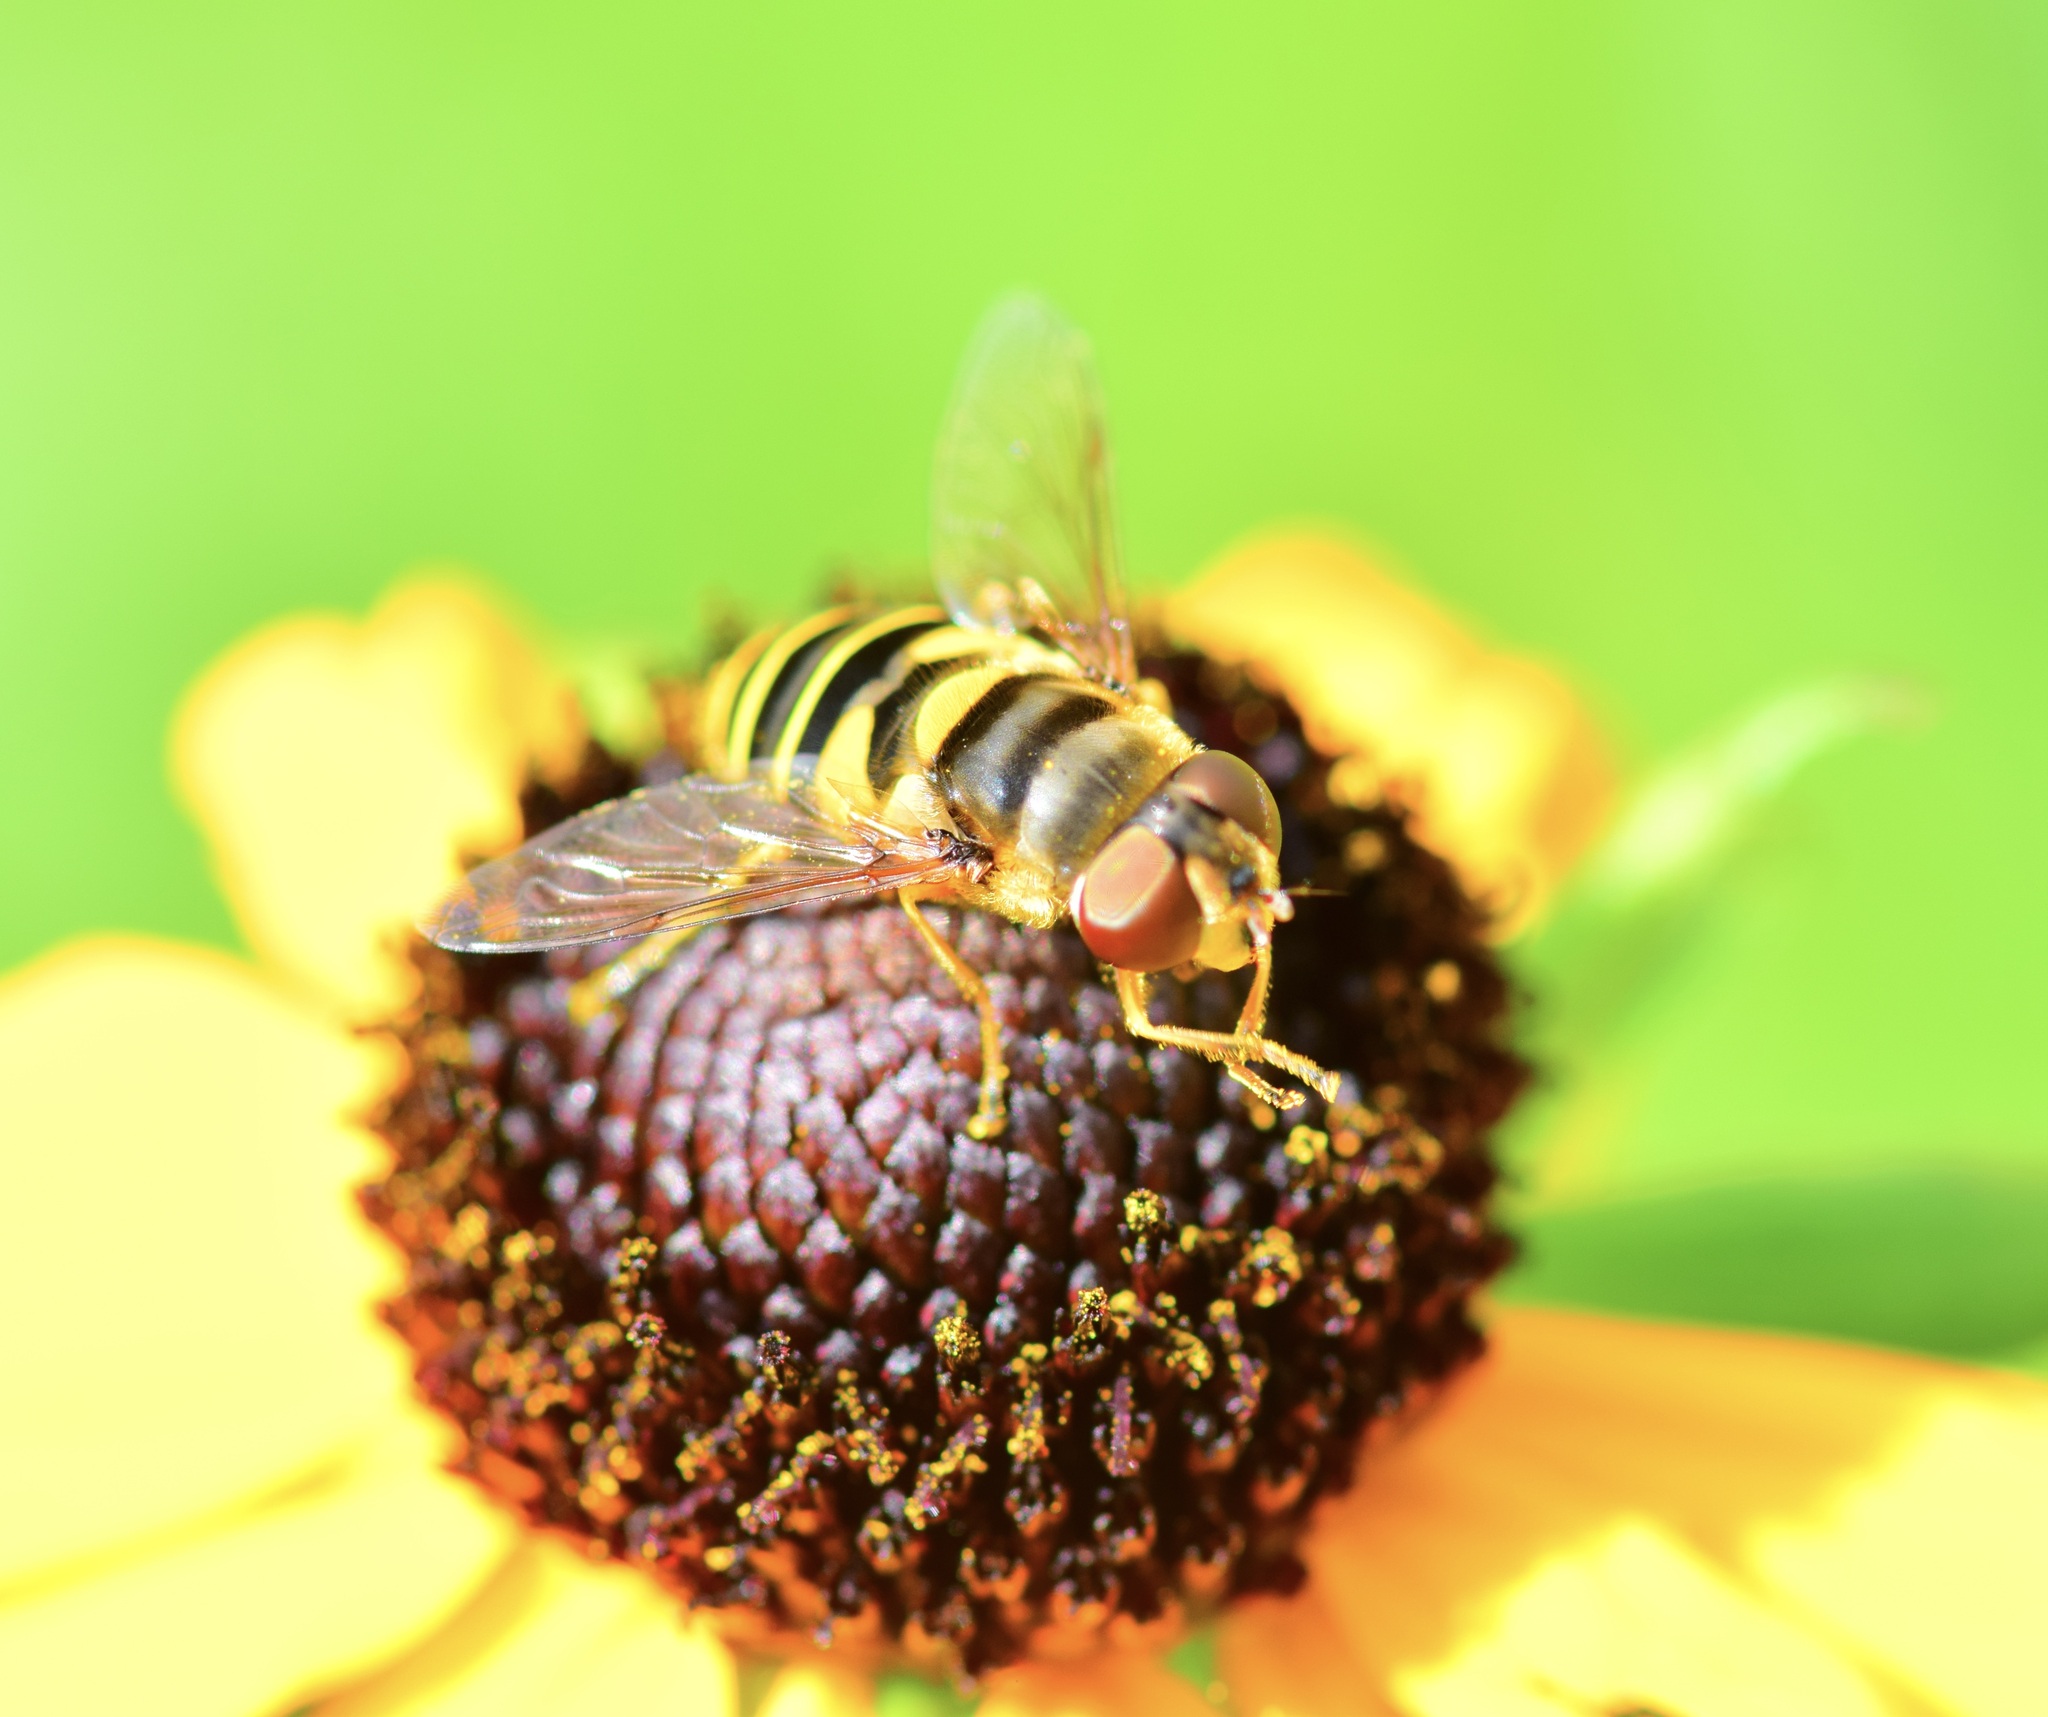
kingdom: Animalia
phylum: Arthropoda
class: Insecta
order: Diptera
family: Syrphidae
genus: Eristalis
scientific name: Eristalis transversa
